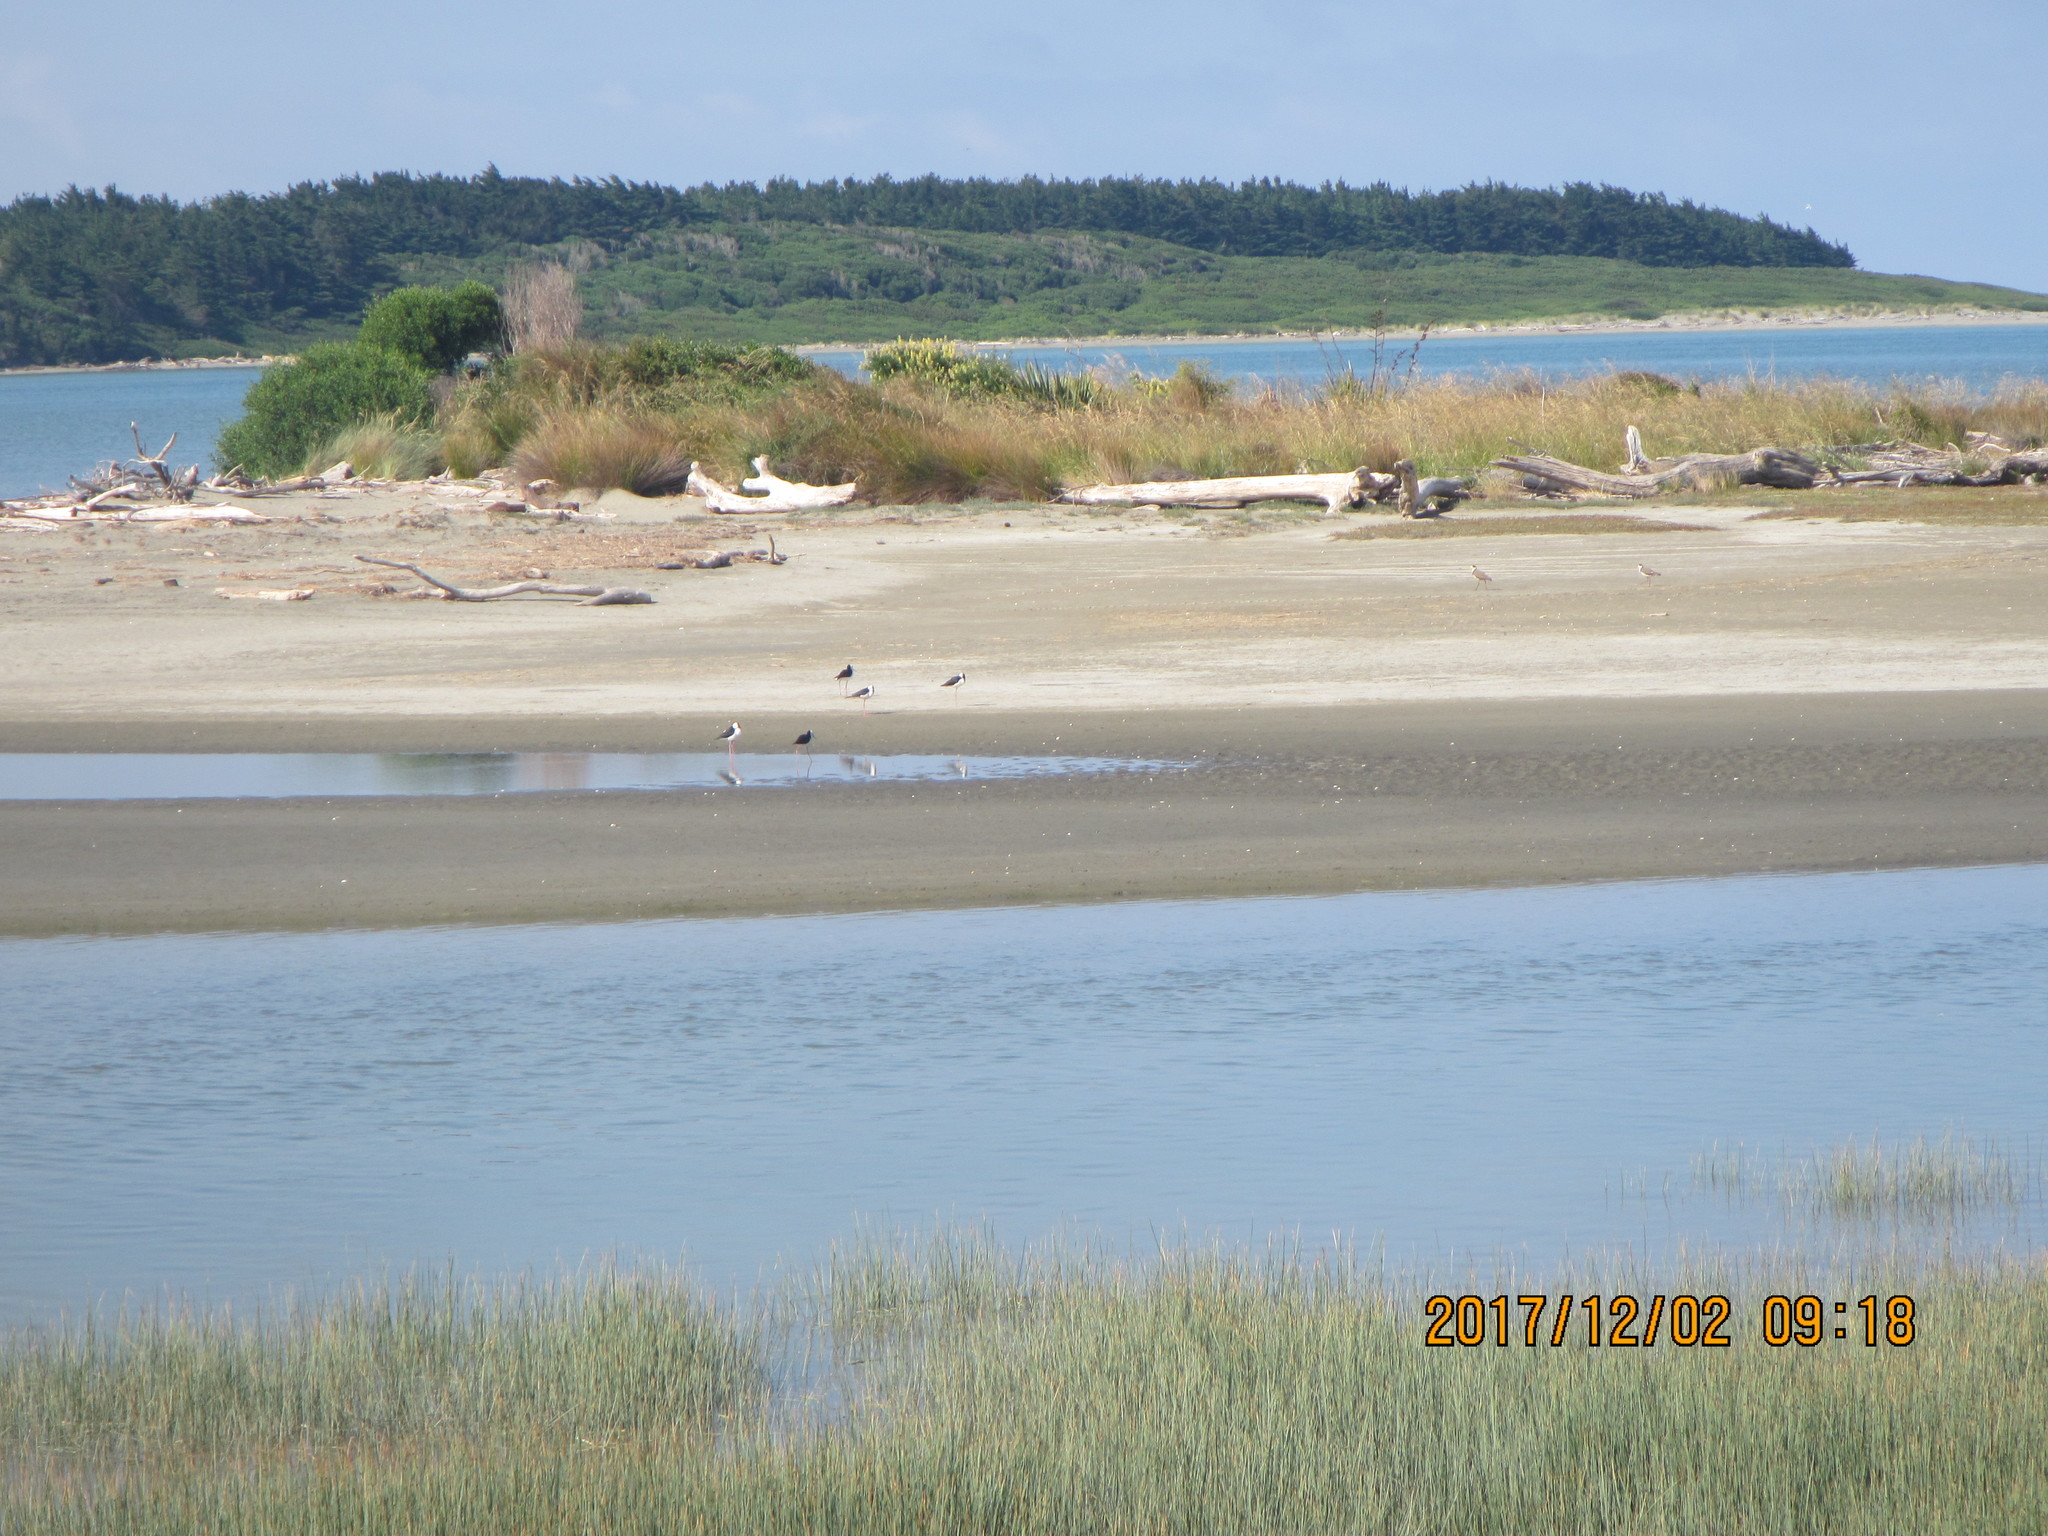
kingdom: Animalia
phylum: Chordata
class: Aves
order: Charadriiformes
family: Charadriidae
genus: Vanellus
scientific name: Vanellus miles
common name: Masked lapwing
